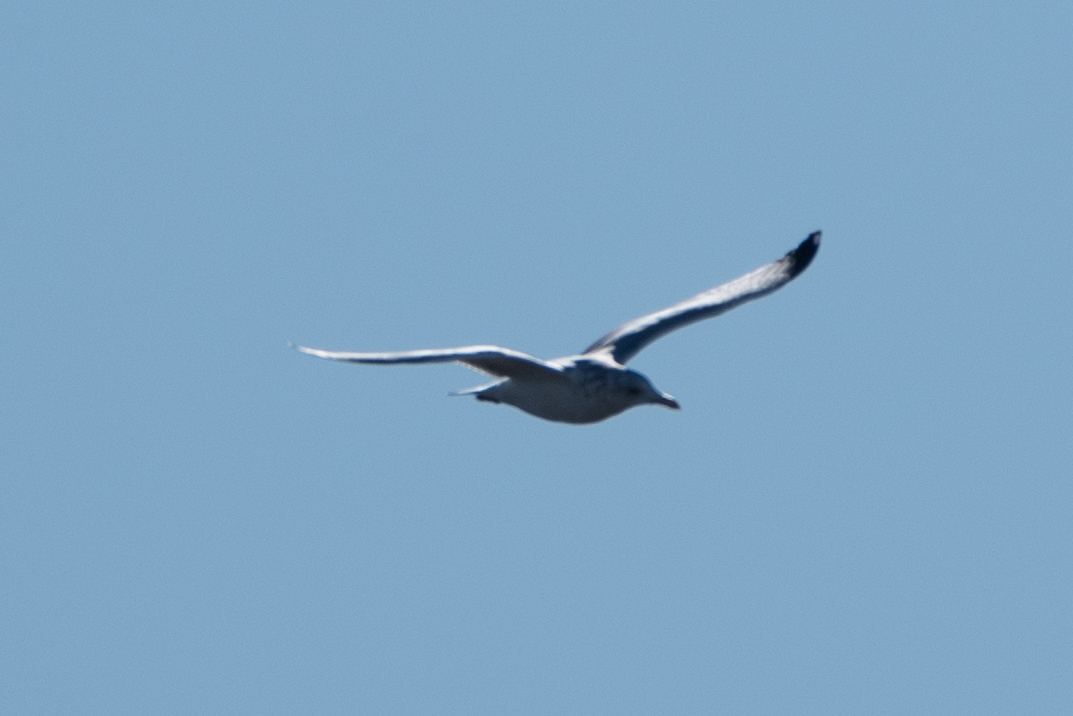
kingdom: Animalia
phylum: Chordata
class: Aves
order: Charadriiformes
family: Laridae
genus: Larus
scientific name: Larus
